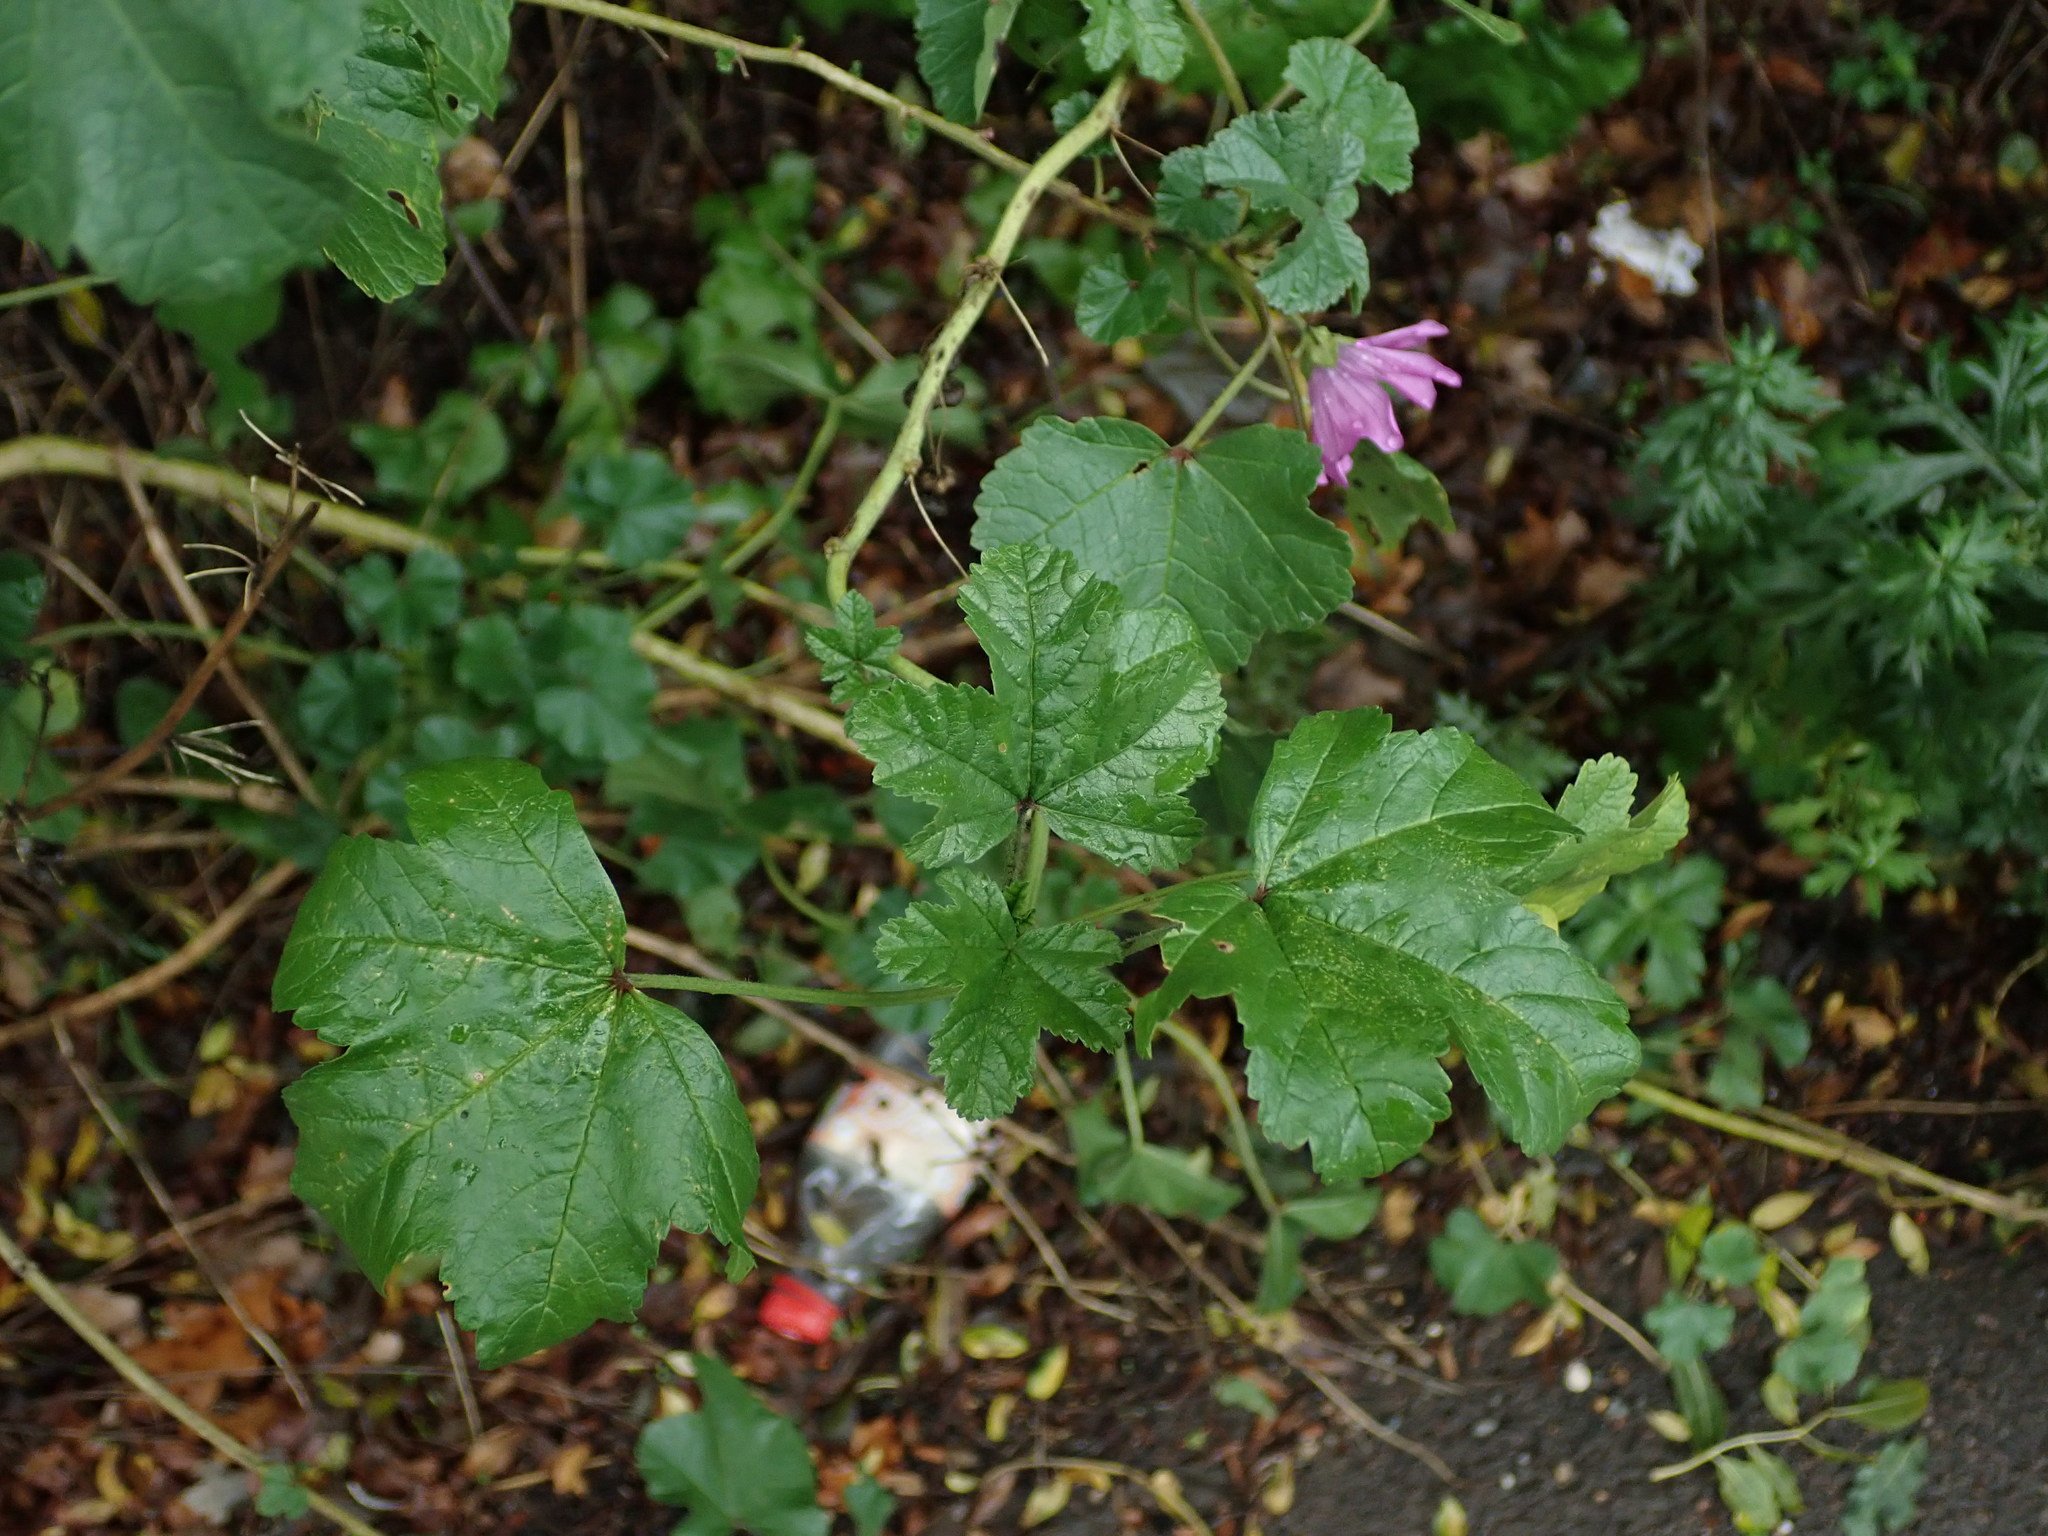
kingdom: Plantae
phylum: Tracheophyta
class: Magnoliopsida
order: Malvales
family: Malvaceae
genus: Malva
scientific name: Malva sylvestris
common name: Common mallow
